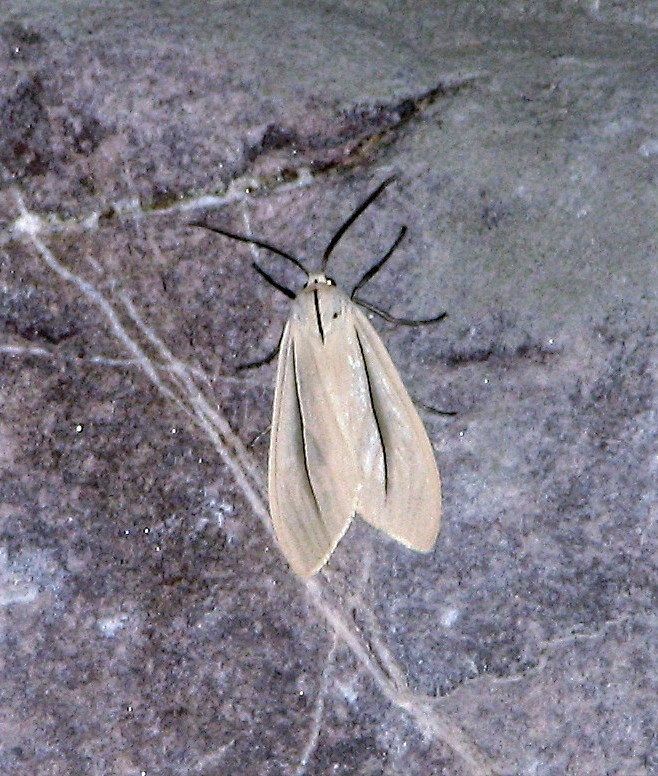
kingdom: Animalia
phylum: Arthropoda
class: Insecta
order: Lepidoptera
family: Erebidae
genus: Biturix
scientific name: Biturix rectilinea
